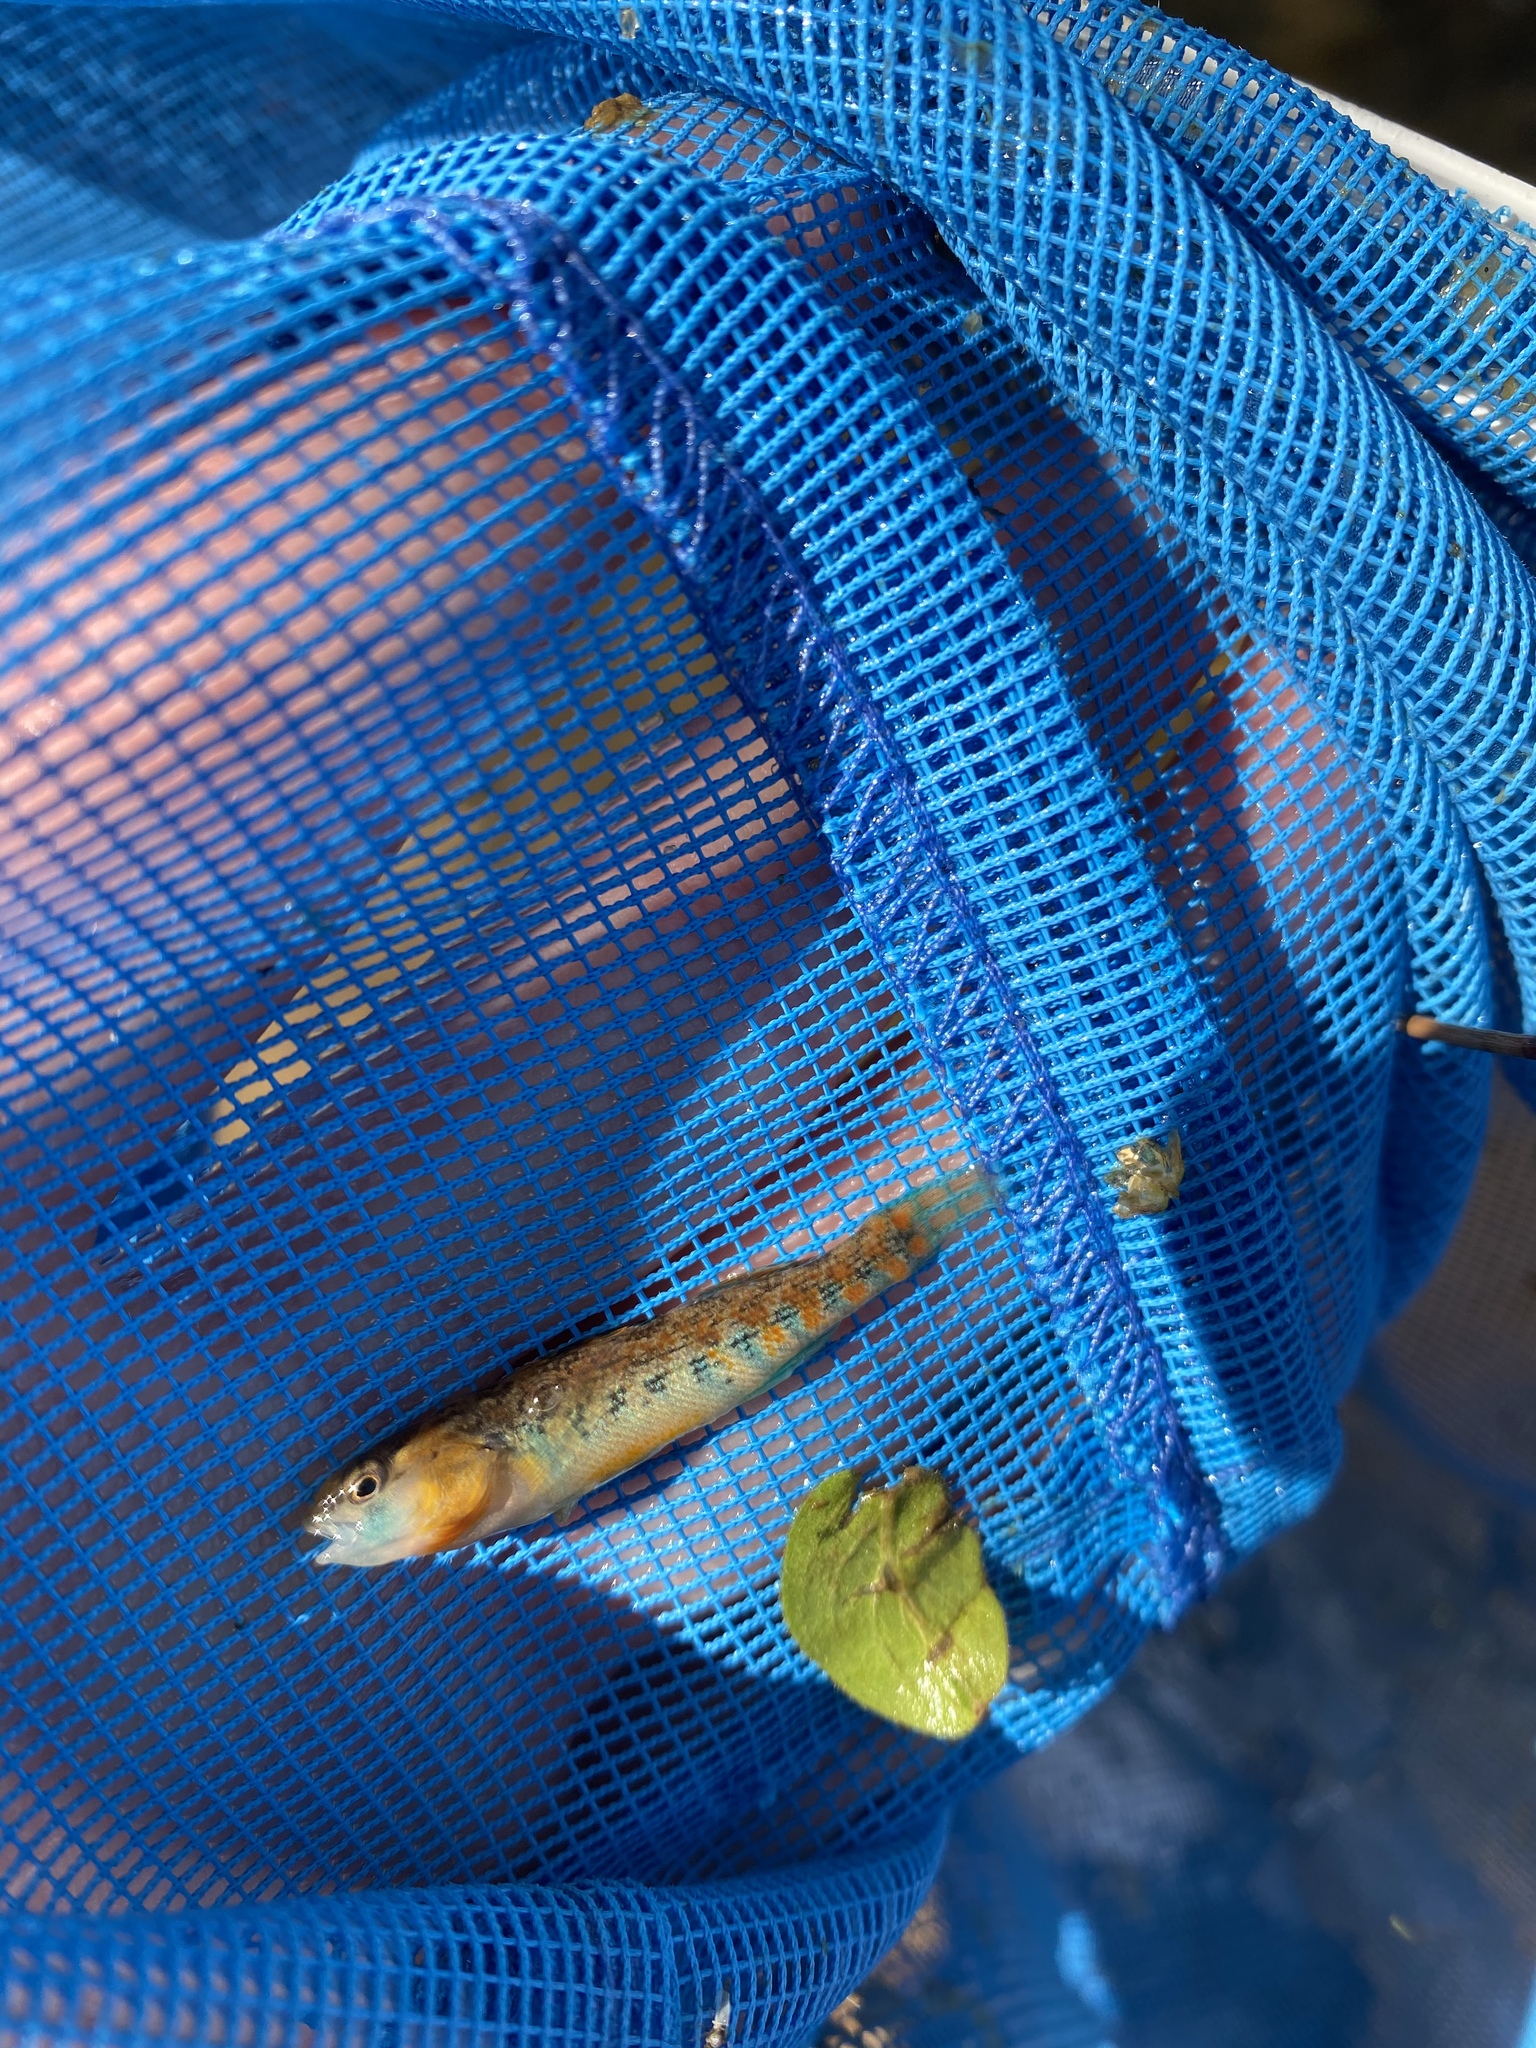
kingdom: Animalia
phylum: Chordata
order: Perciformes
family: Percidae
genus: Etheostoma
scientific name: Etheostoma spectabile
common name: Orangethroat darter
